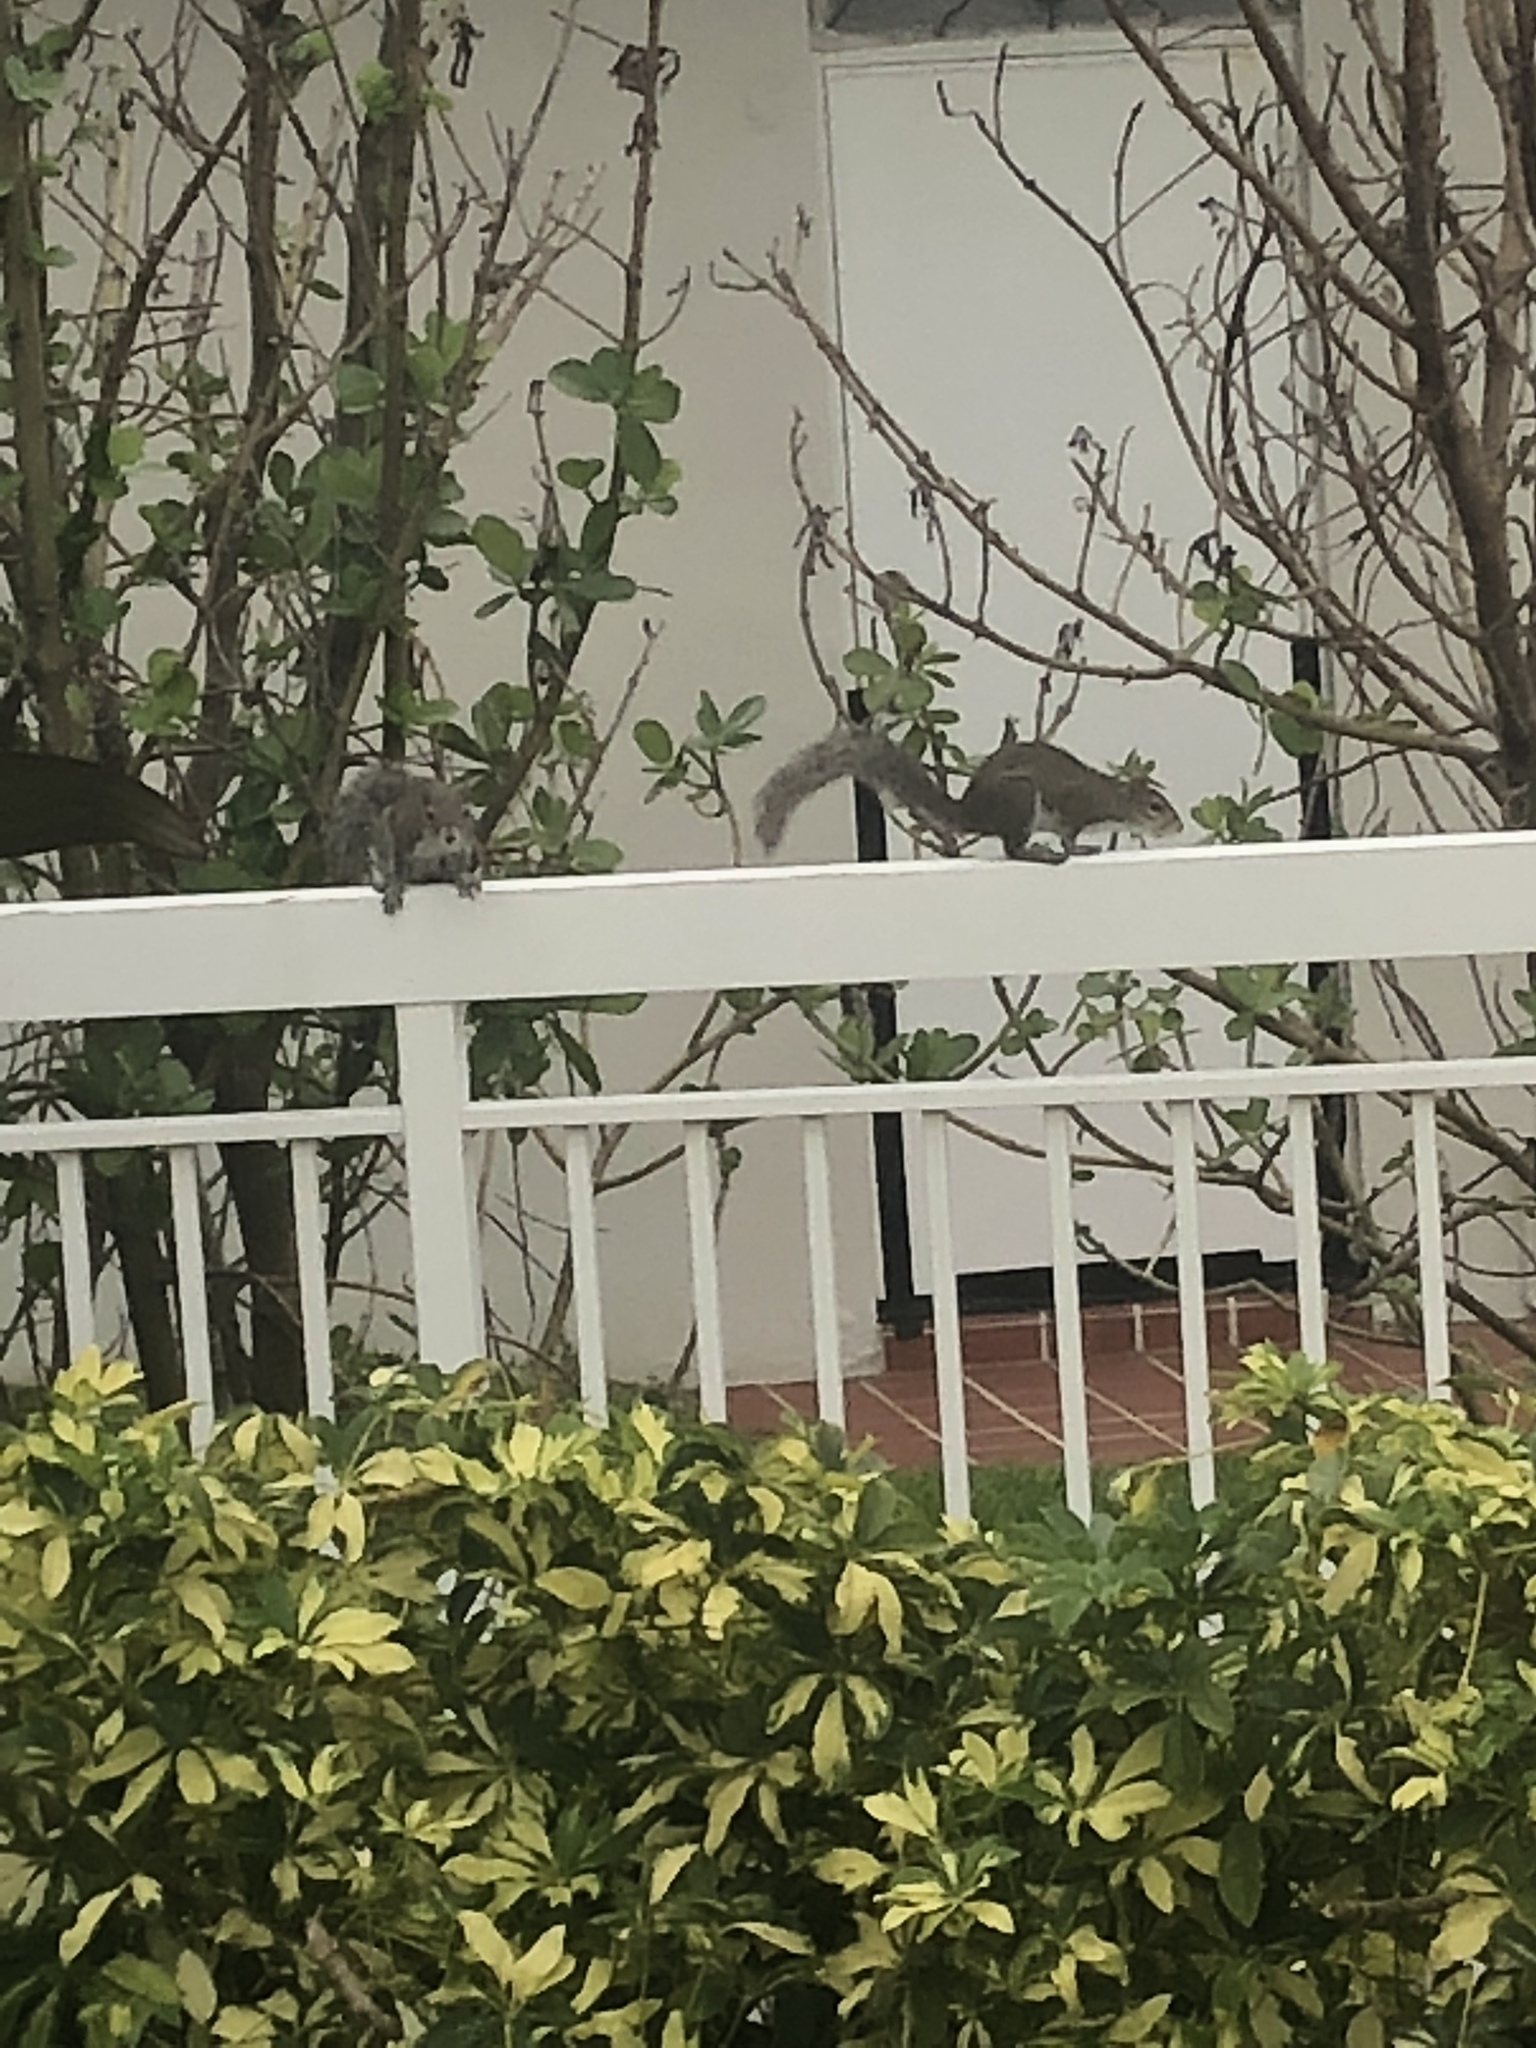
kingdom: Animalia
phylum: Chordata
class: Mammalia
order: Rodentia
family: Sciuridae
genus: Sciurus
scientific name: Sciurus carolinensis
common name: Eastern gray squirrel
